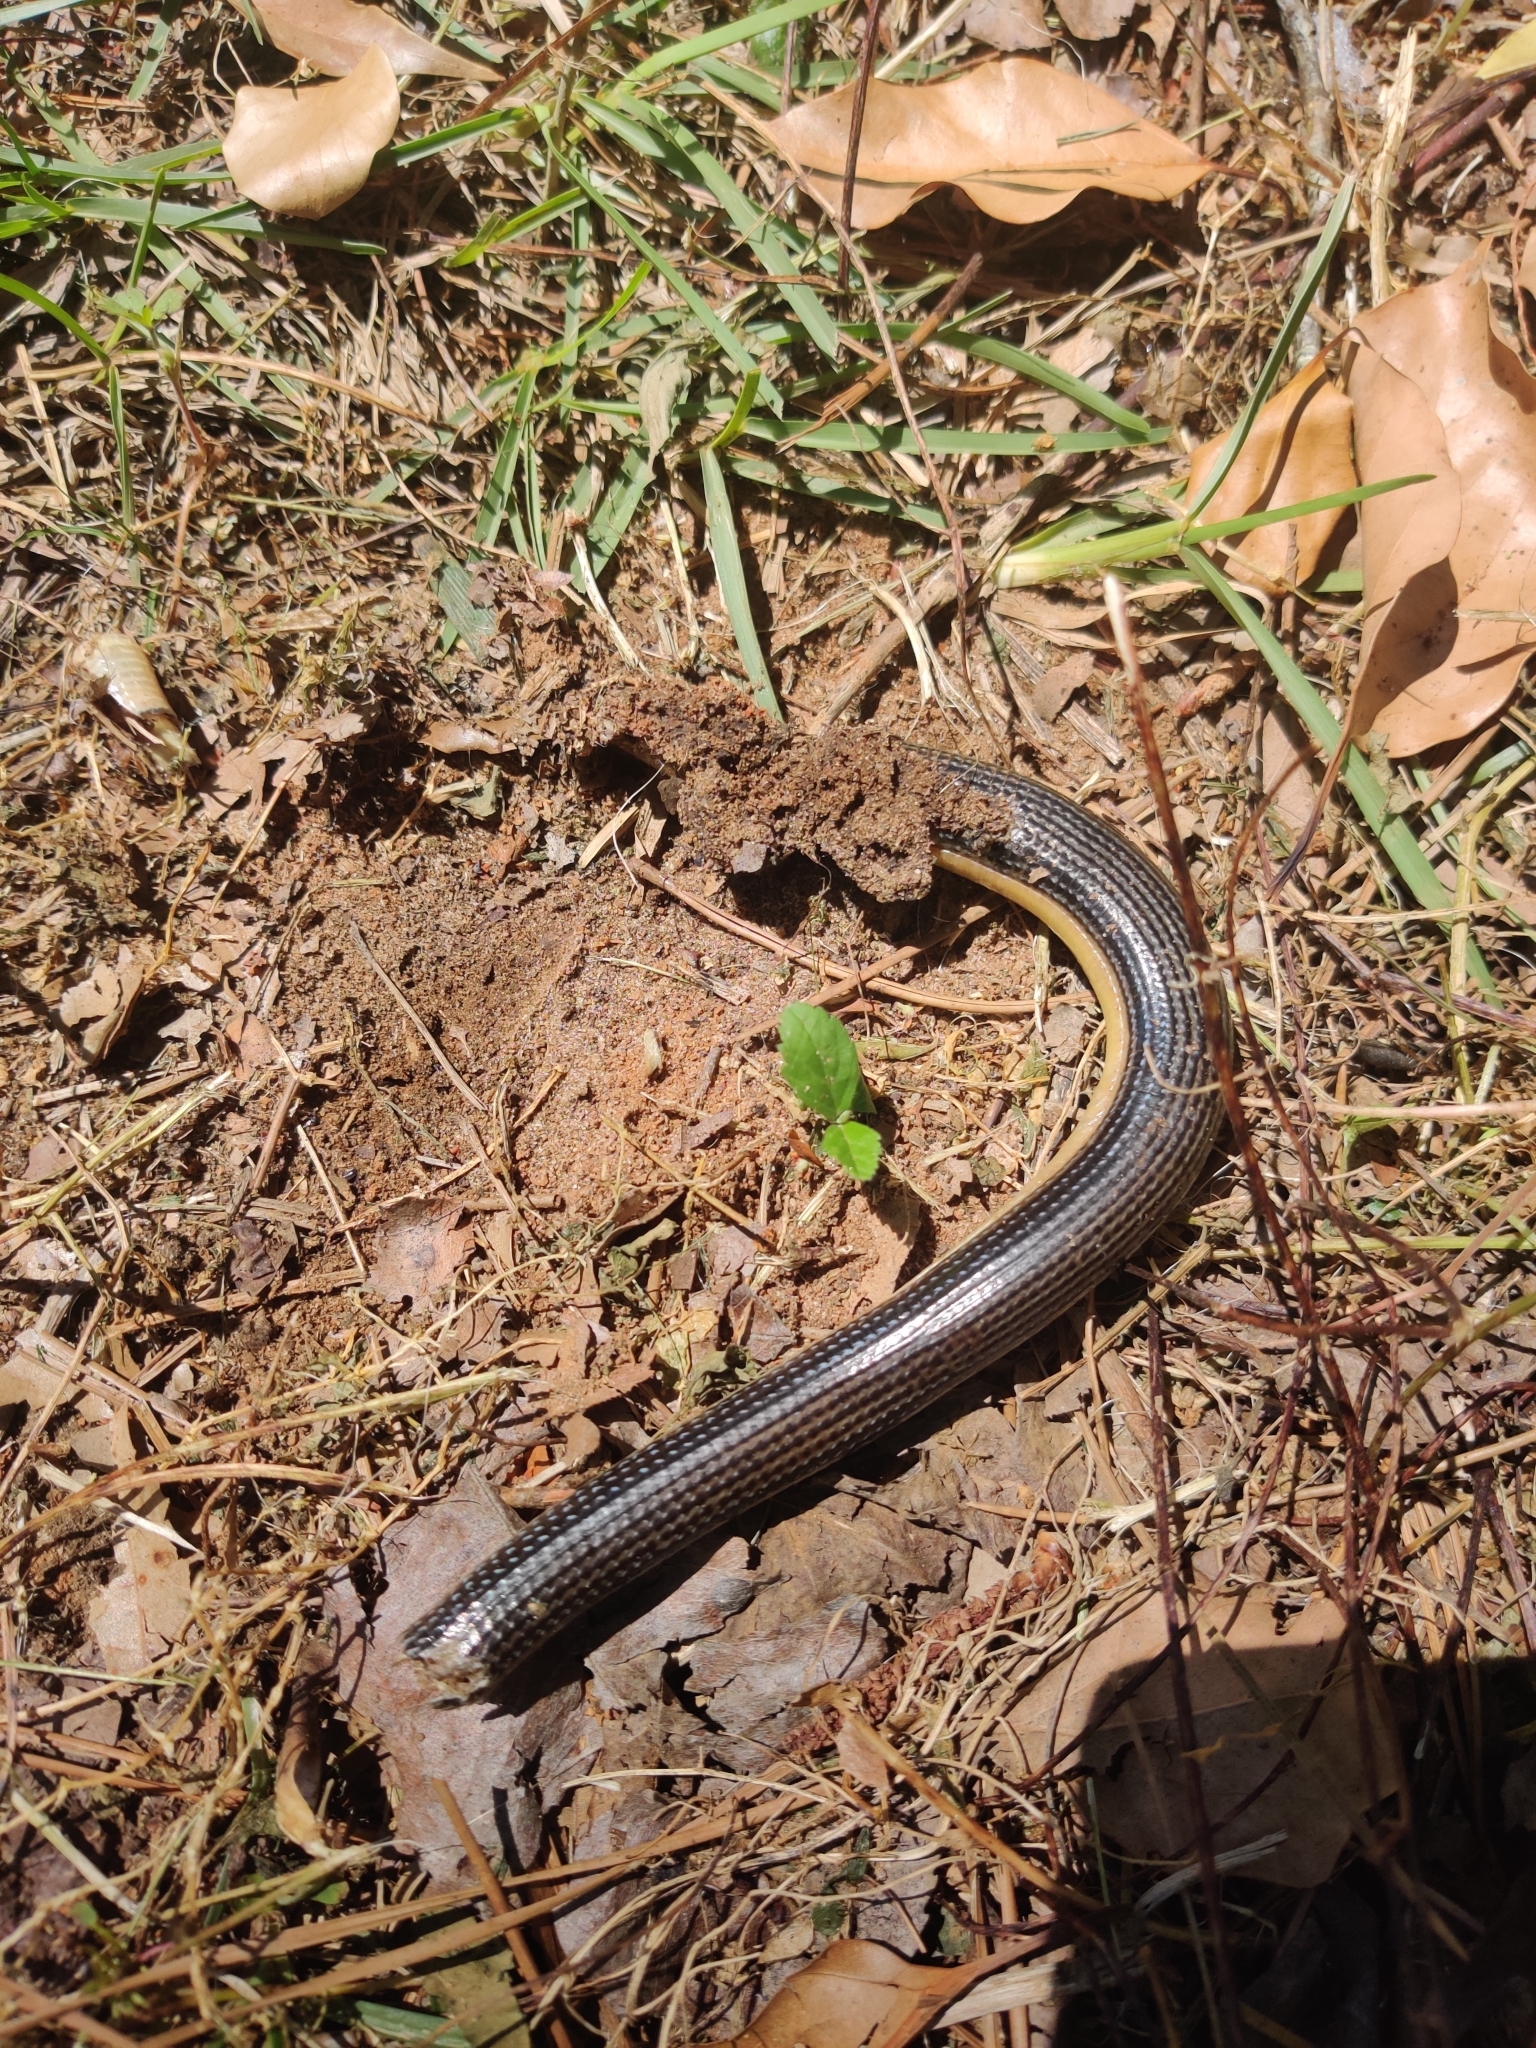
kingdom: Animalia
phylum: Chordata
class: Squamata
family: Anguidae
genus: Ophisaurus
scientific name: Ophisaurus ventralis
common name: Eastern glass lizard
